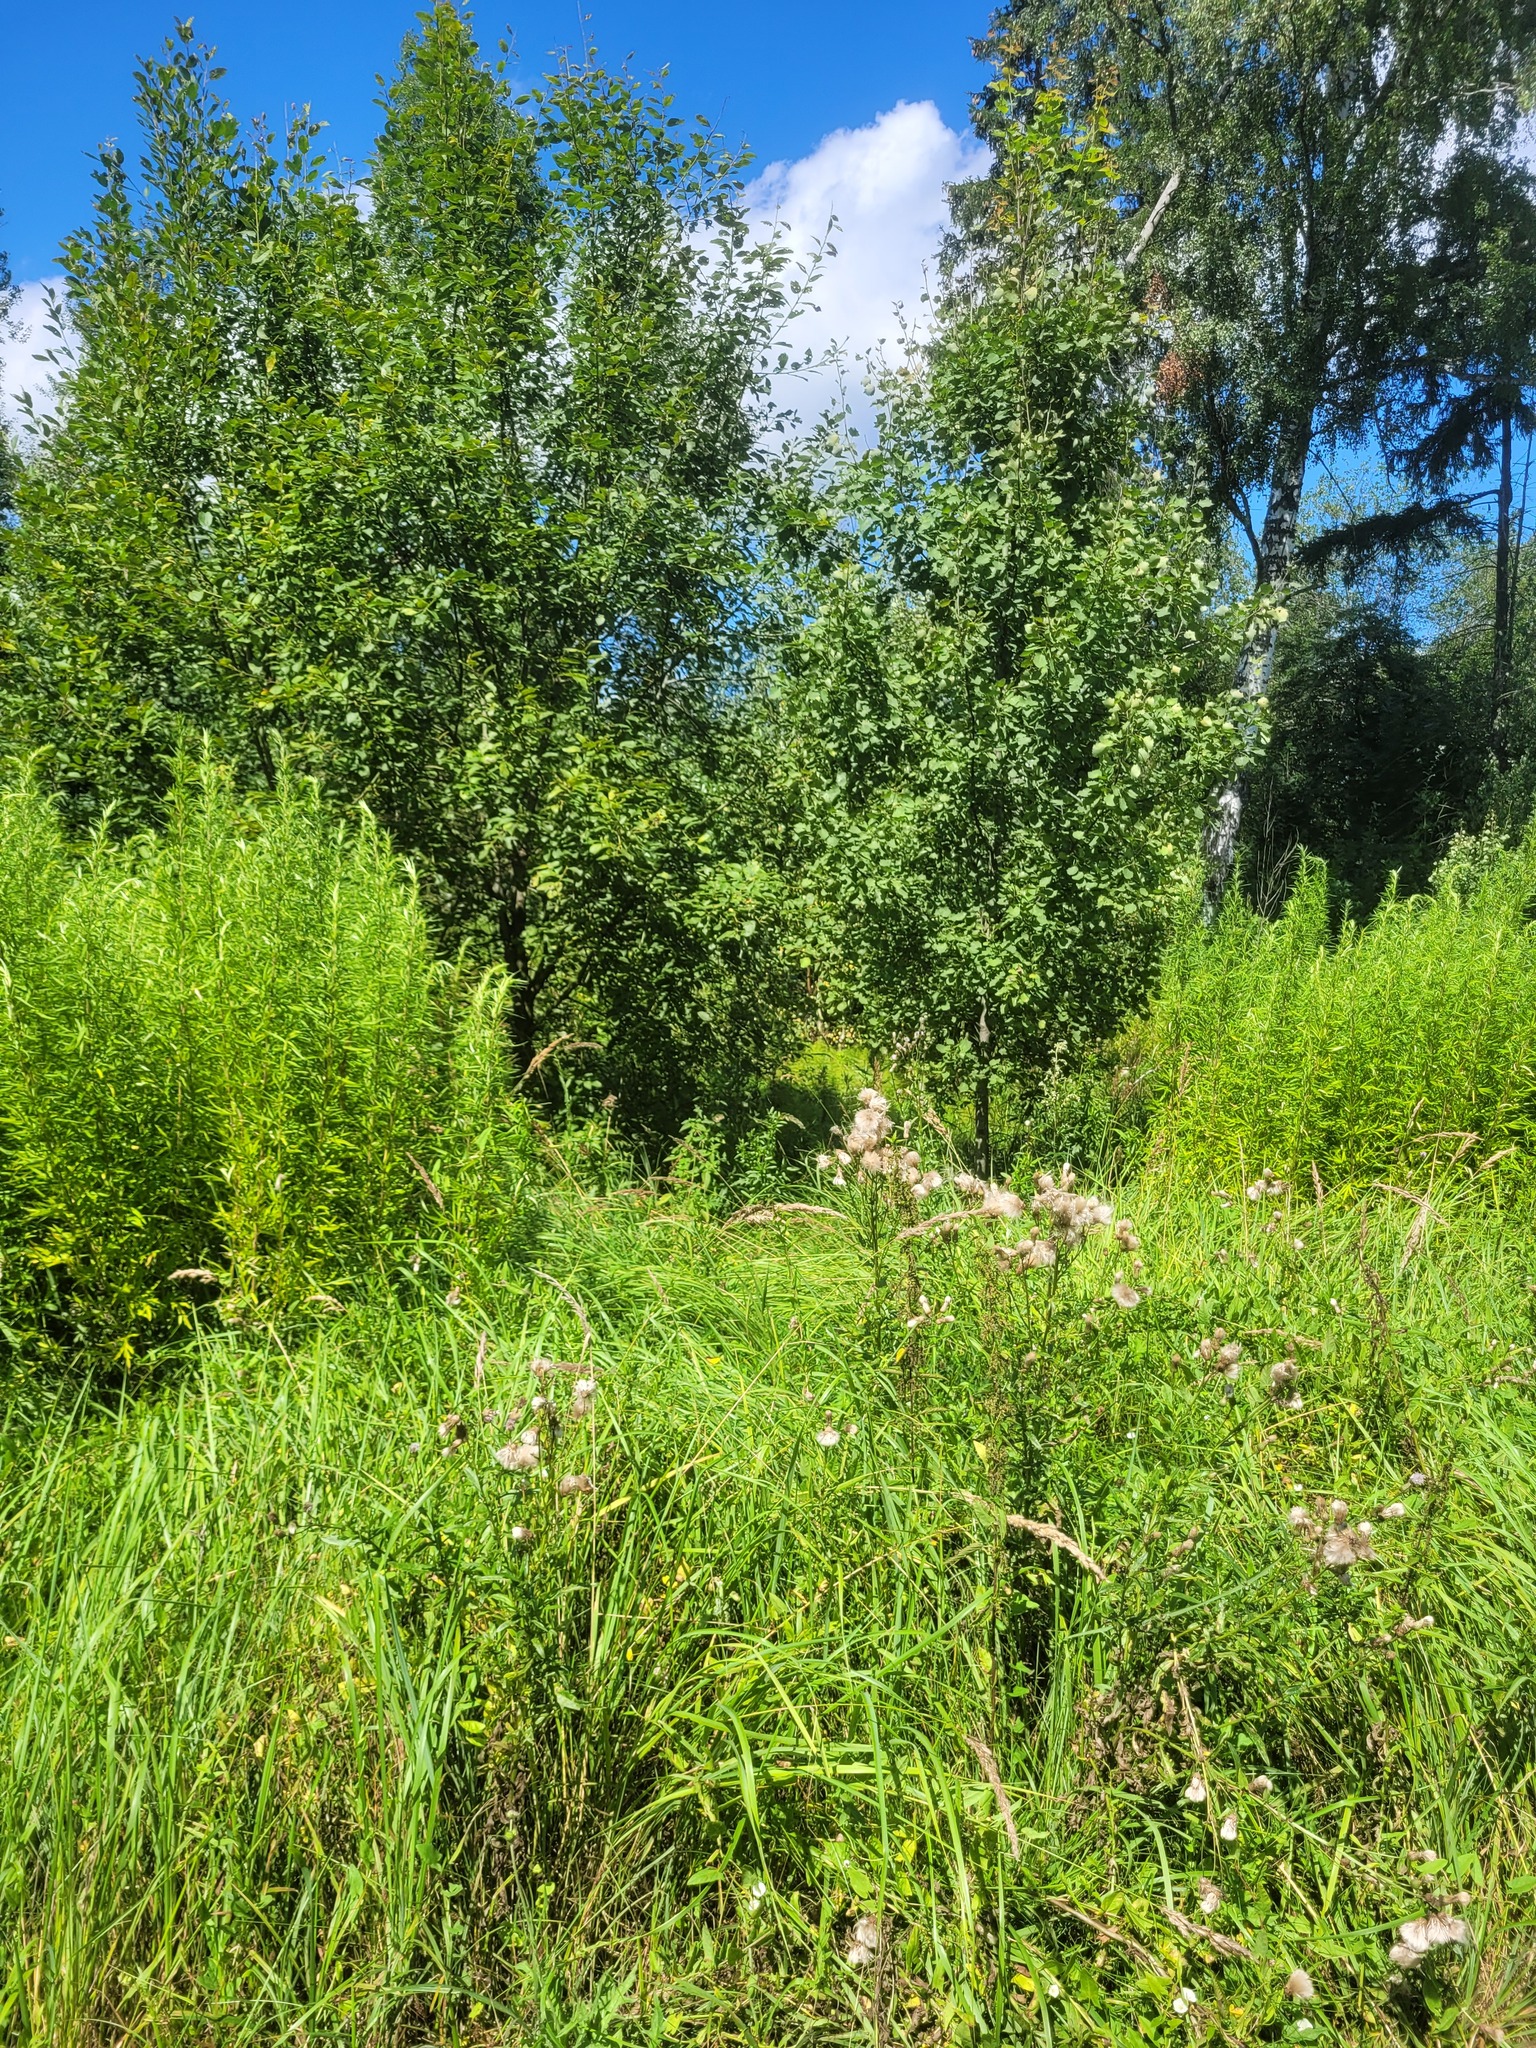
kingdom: Plantae
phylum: Tracheophyta
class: Magnoliopsida
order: Asterales
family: Asteraceae
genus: Cirsium
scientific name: Cirsium arvense
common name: Creeping thistle
